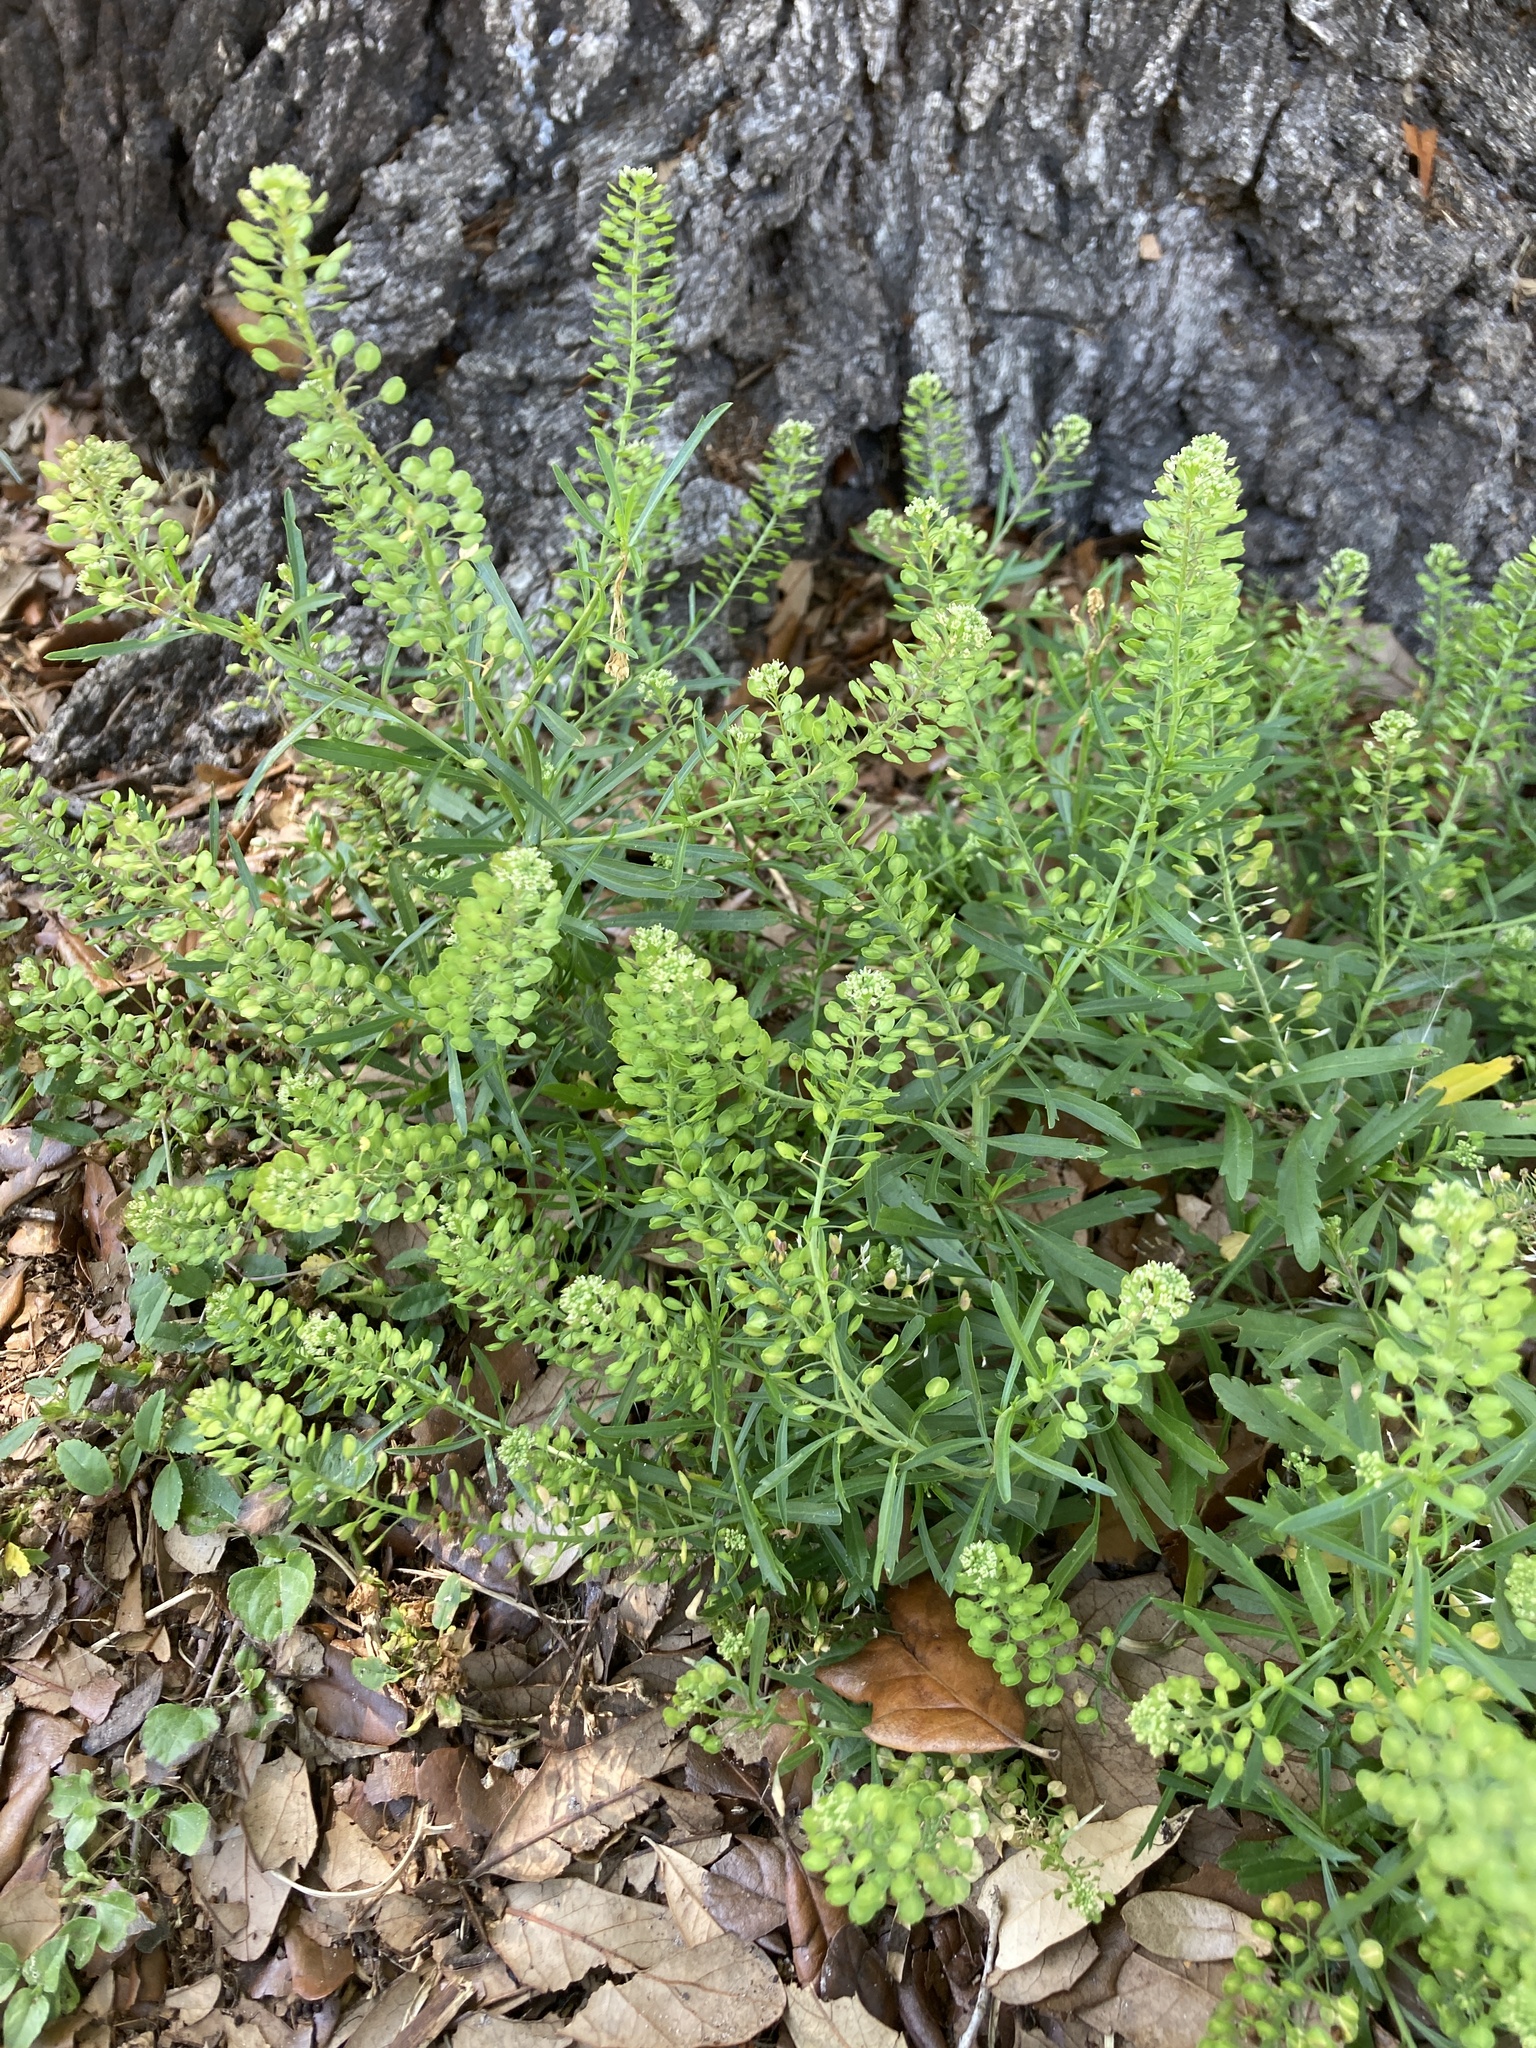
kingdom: Plantae
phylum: Tracheophyta
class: Magnoliopsida
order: Brassicales
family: Brassicaceae
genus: Lepidium
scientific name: Lepidium virginicum
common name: Least pepperwort
